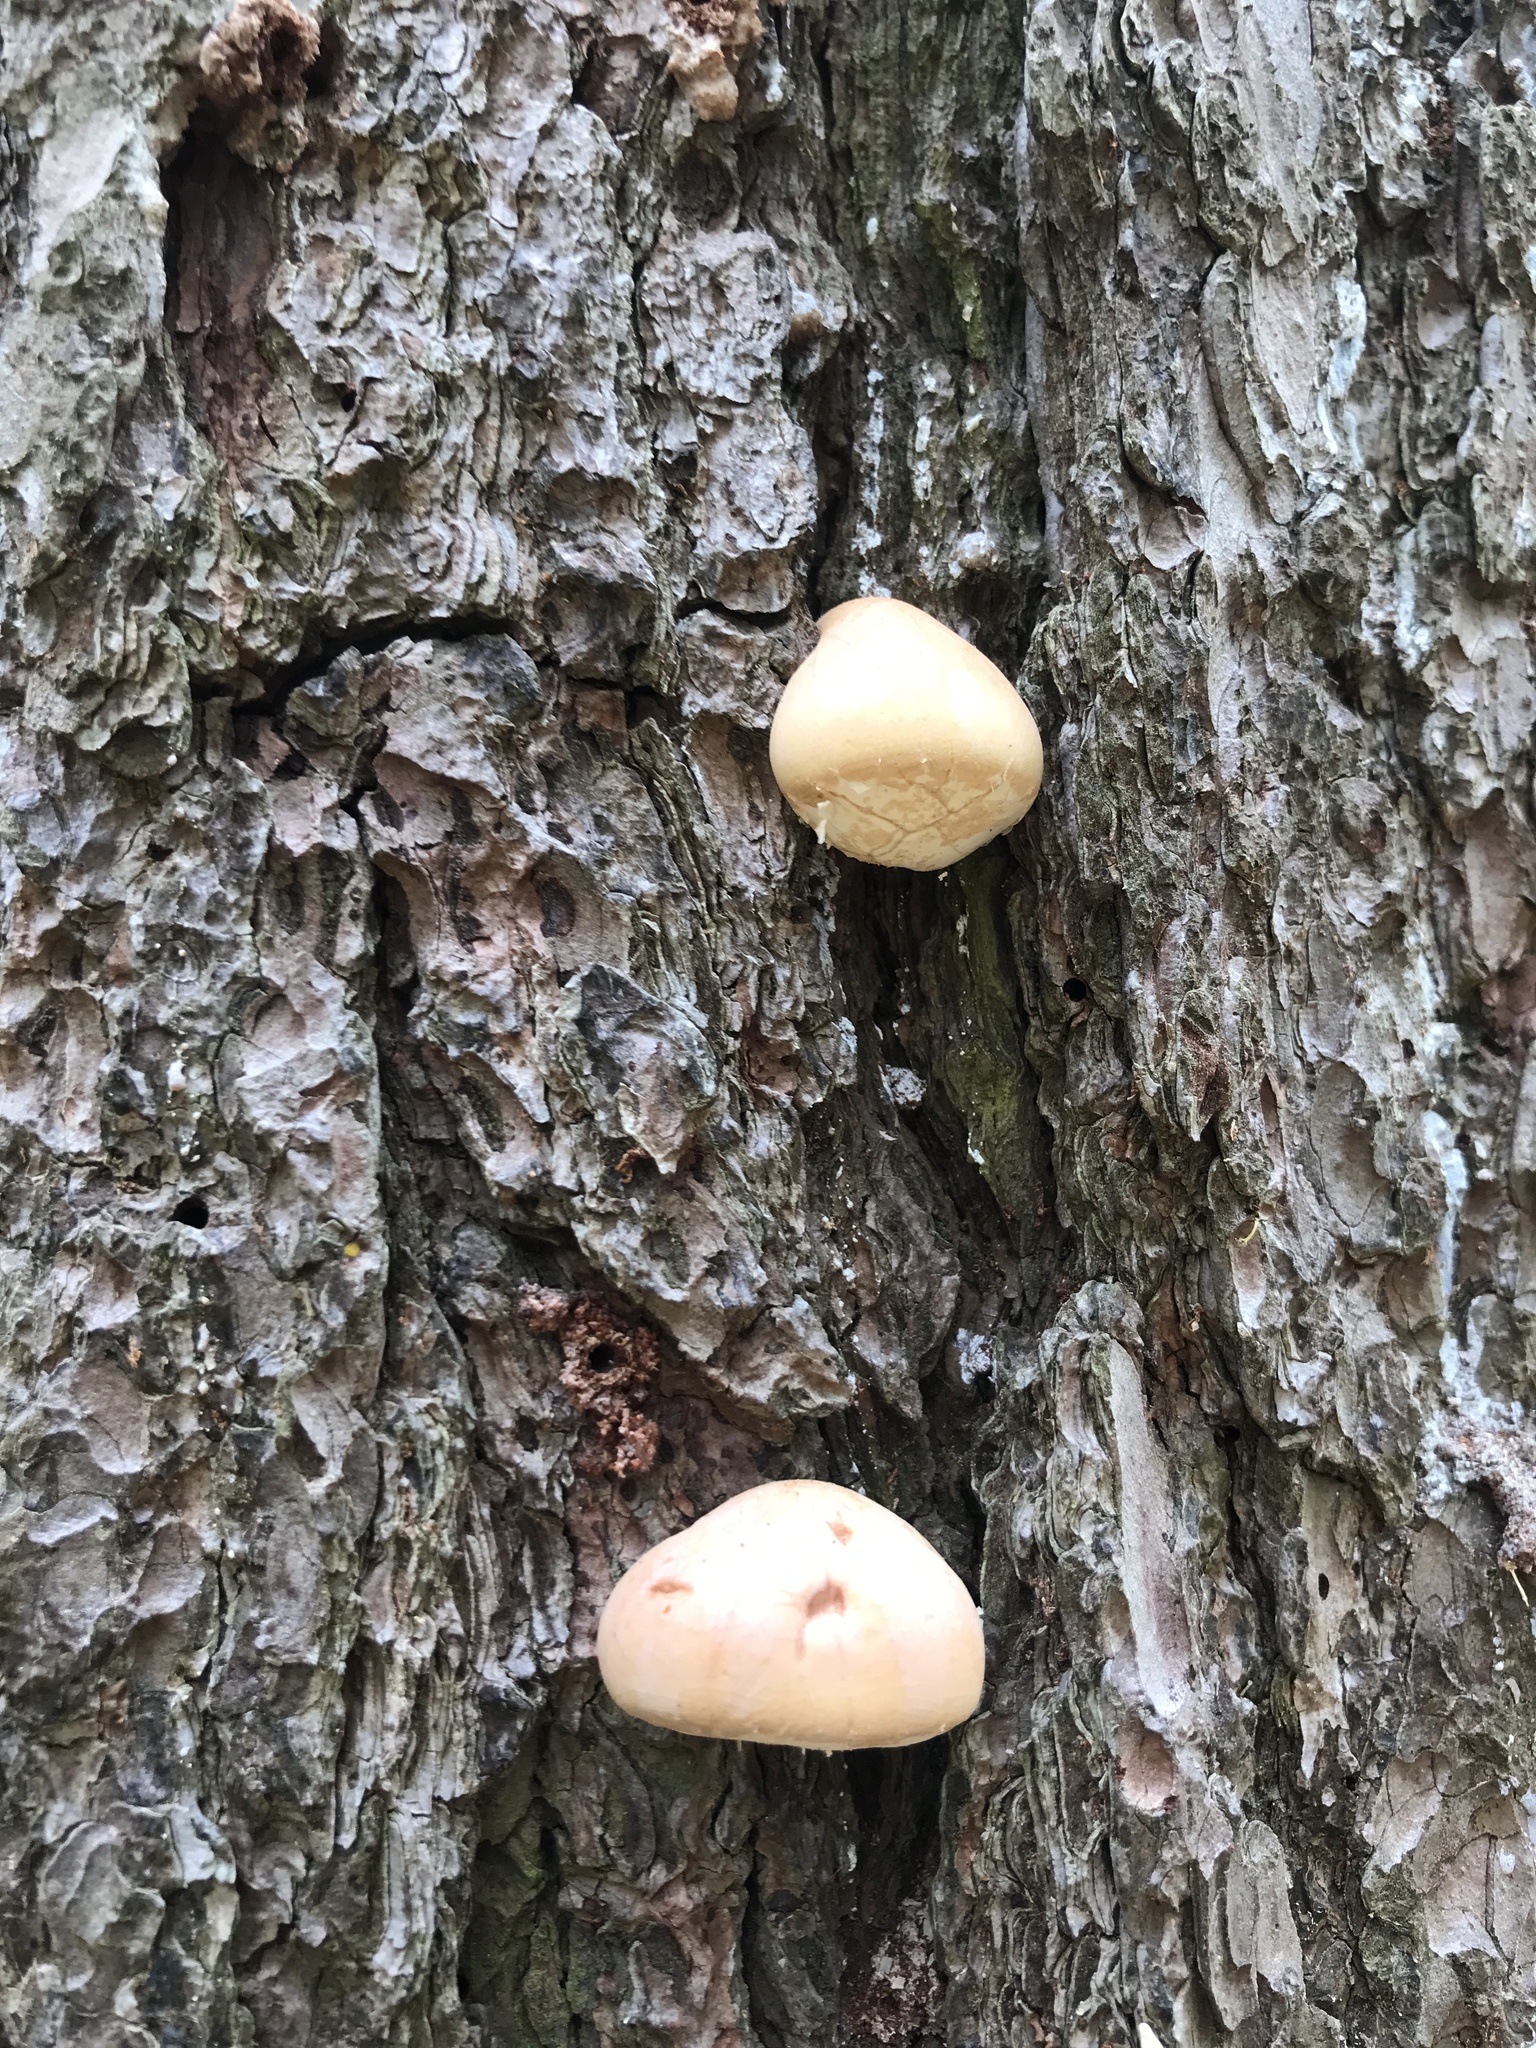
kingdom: Fungi
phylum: Basidiomycota
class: Agaricomycetes
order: Polyporales
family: Polyporaceae
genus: Cryptoporus
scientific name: Cryptoporus volvatus
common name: Veiled polypore
